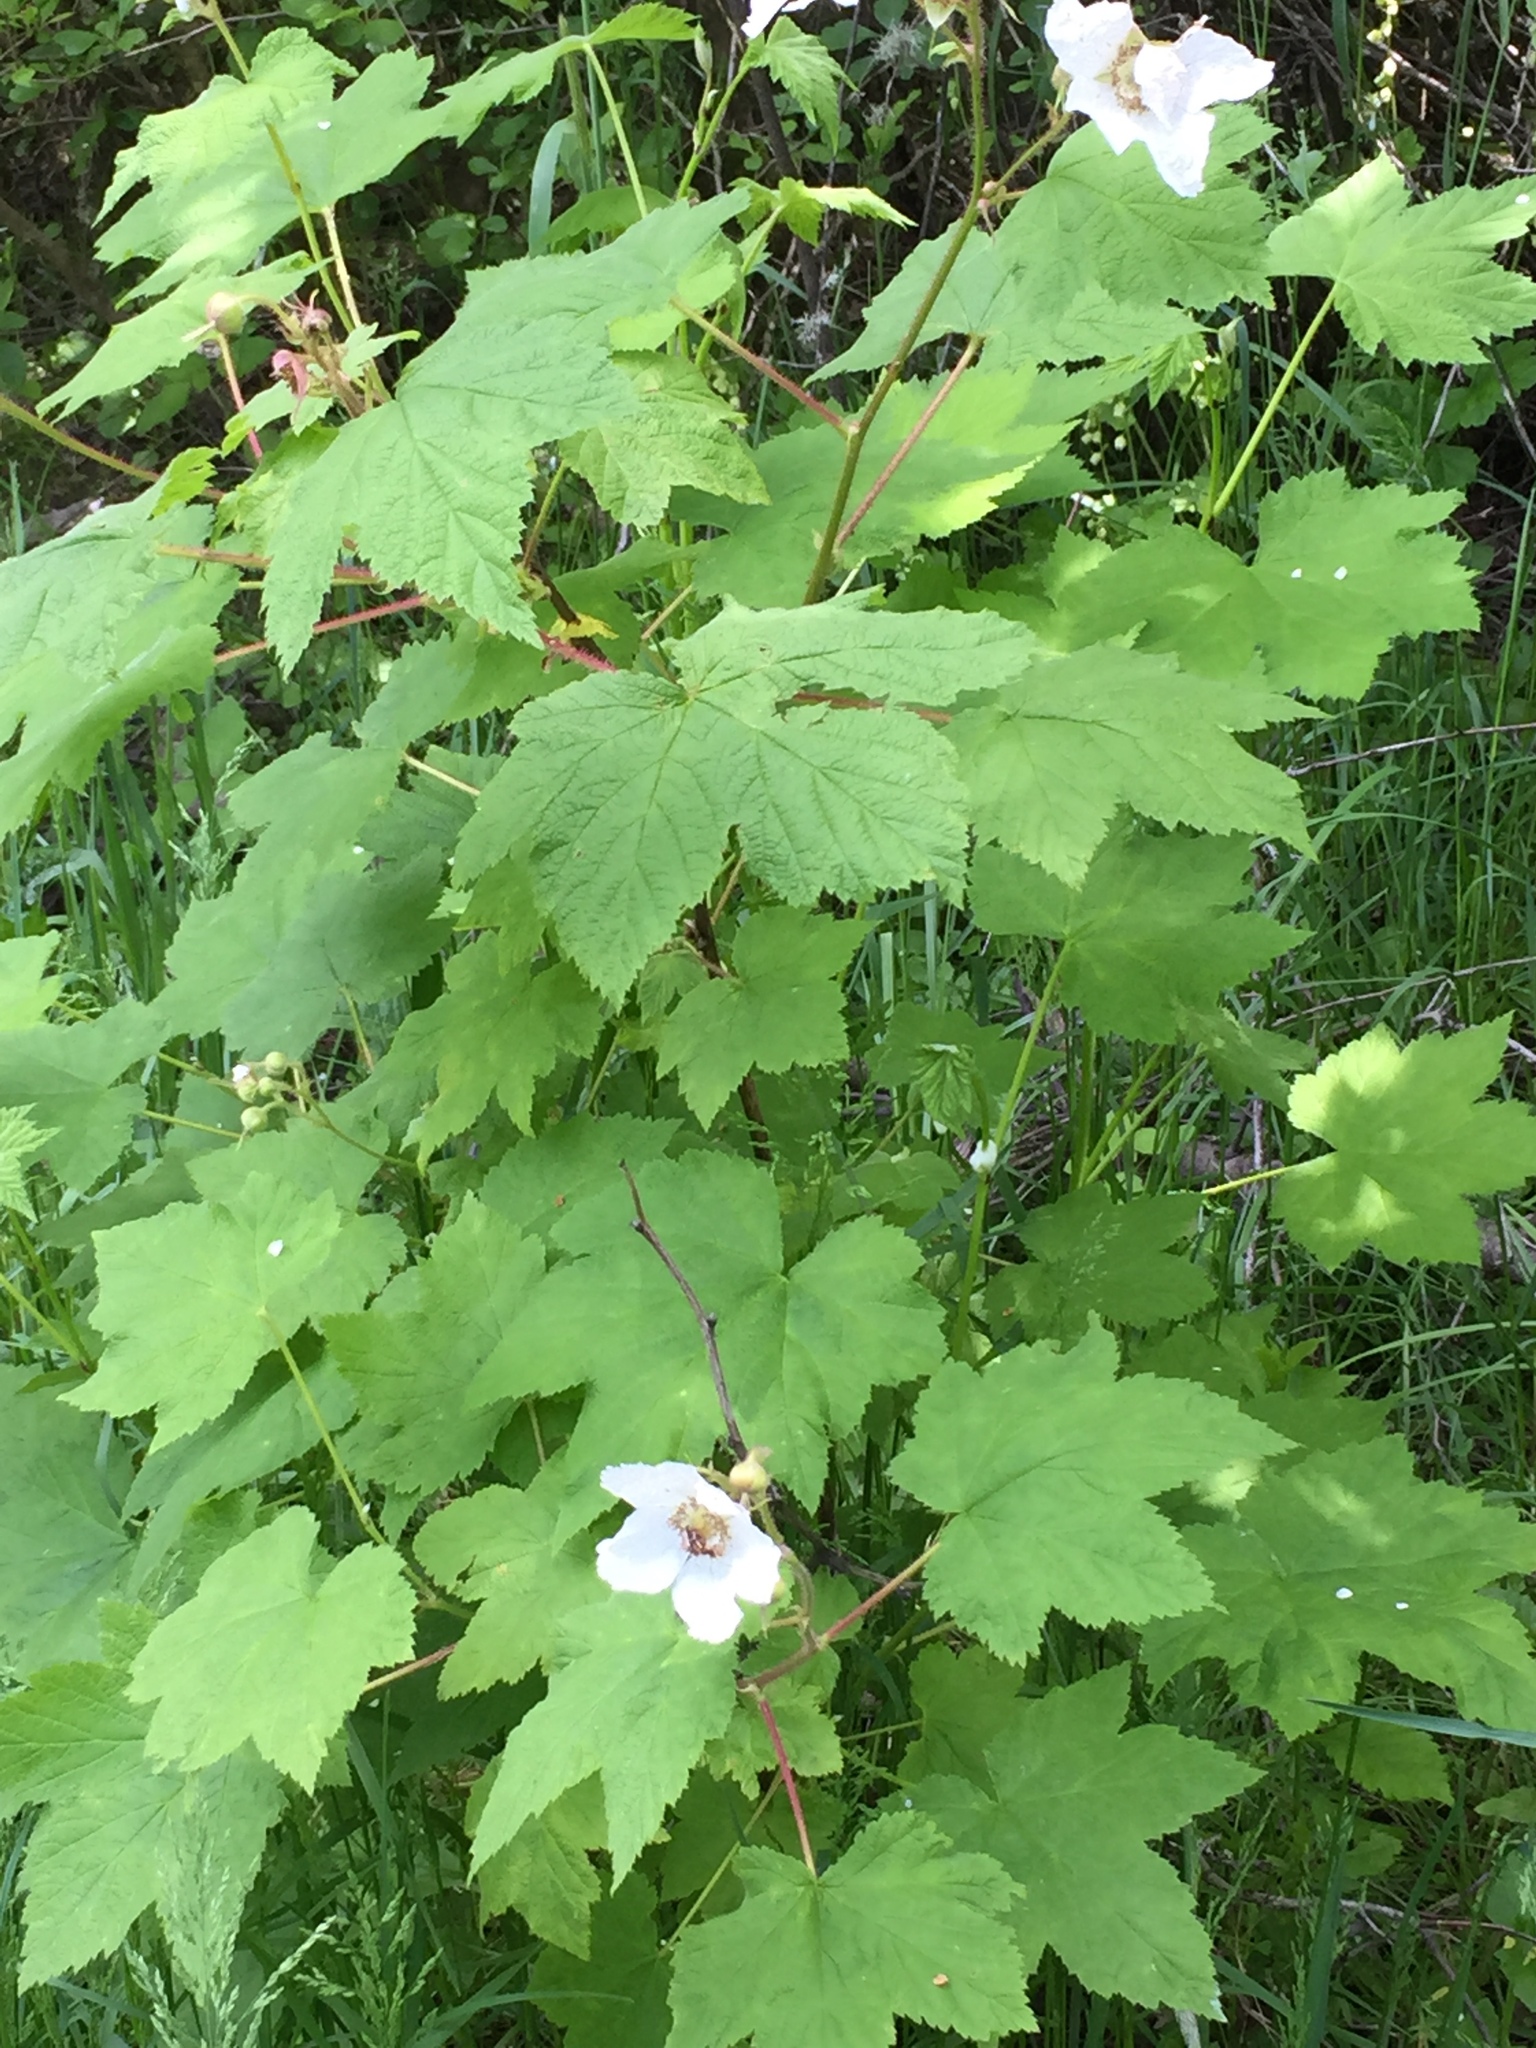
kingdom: Plantae
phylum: Tracheophyta
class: Magnoliopsida
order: Rosales
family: Rosaceae
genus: Rubus
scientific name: Rubus parviflorus
